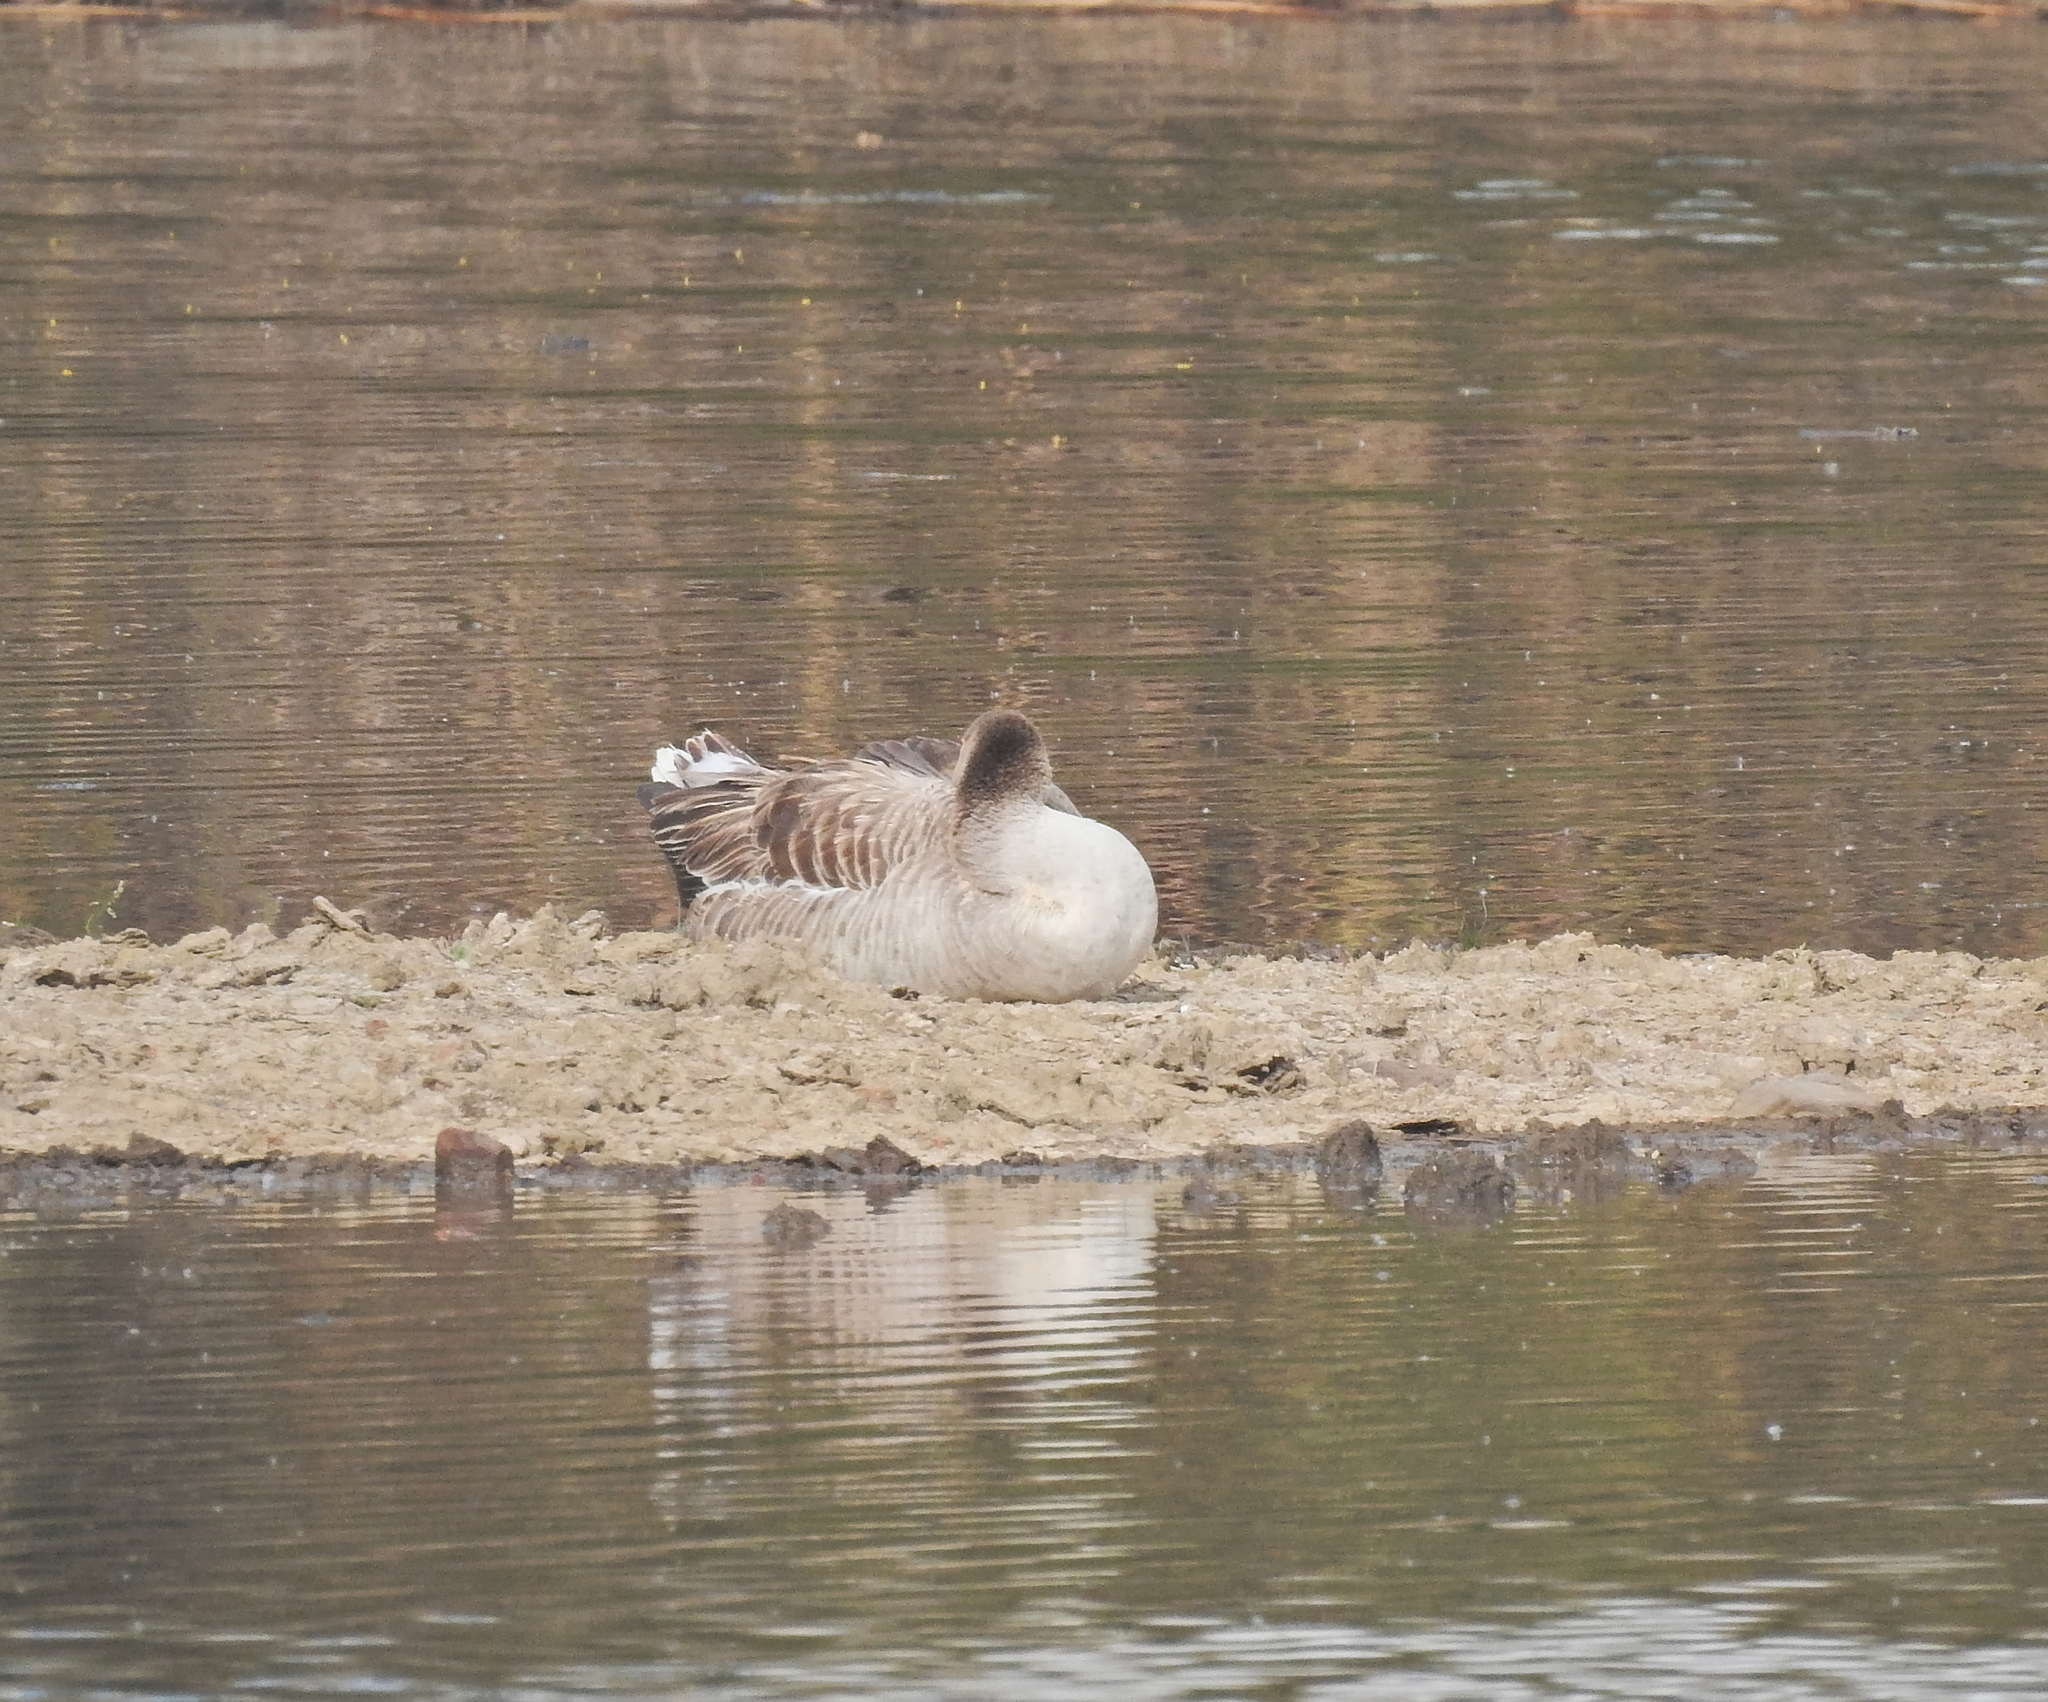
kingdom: Animalia
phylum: Chordata
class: Aves
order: Anseriformes
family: Anatidae
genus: Anser
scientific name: Anser anser
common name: Greylag goose
